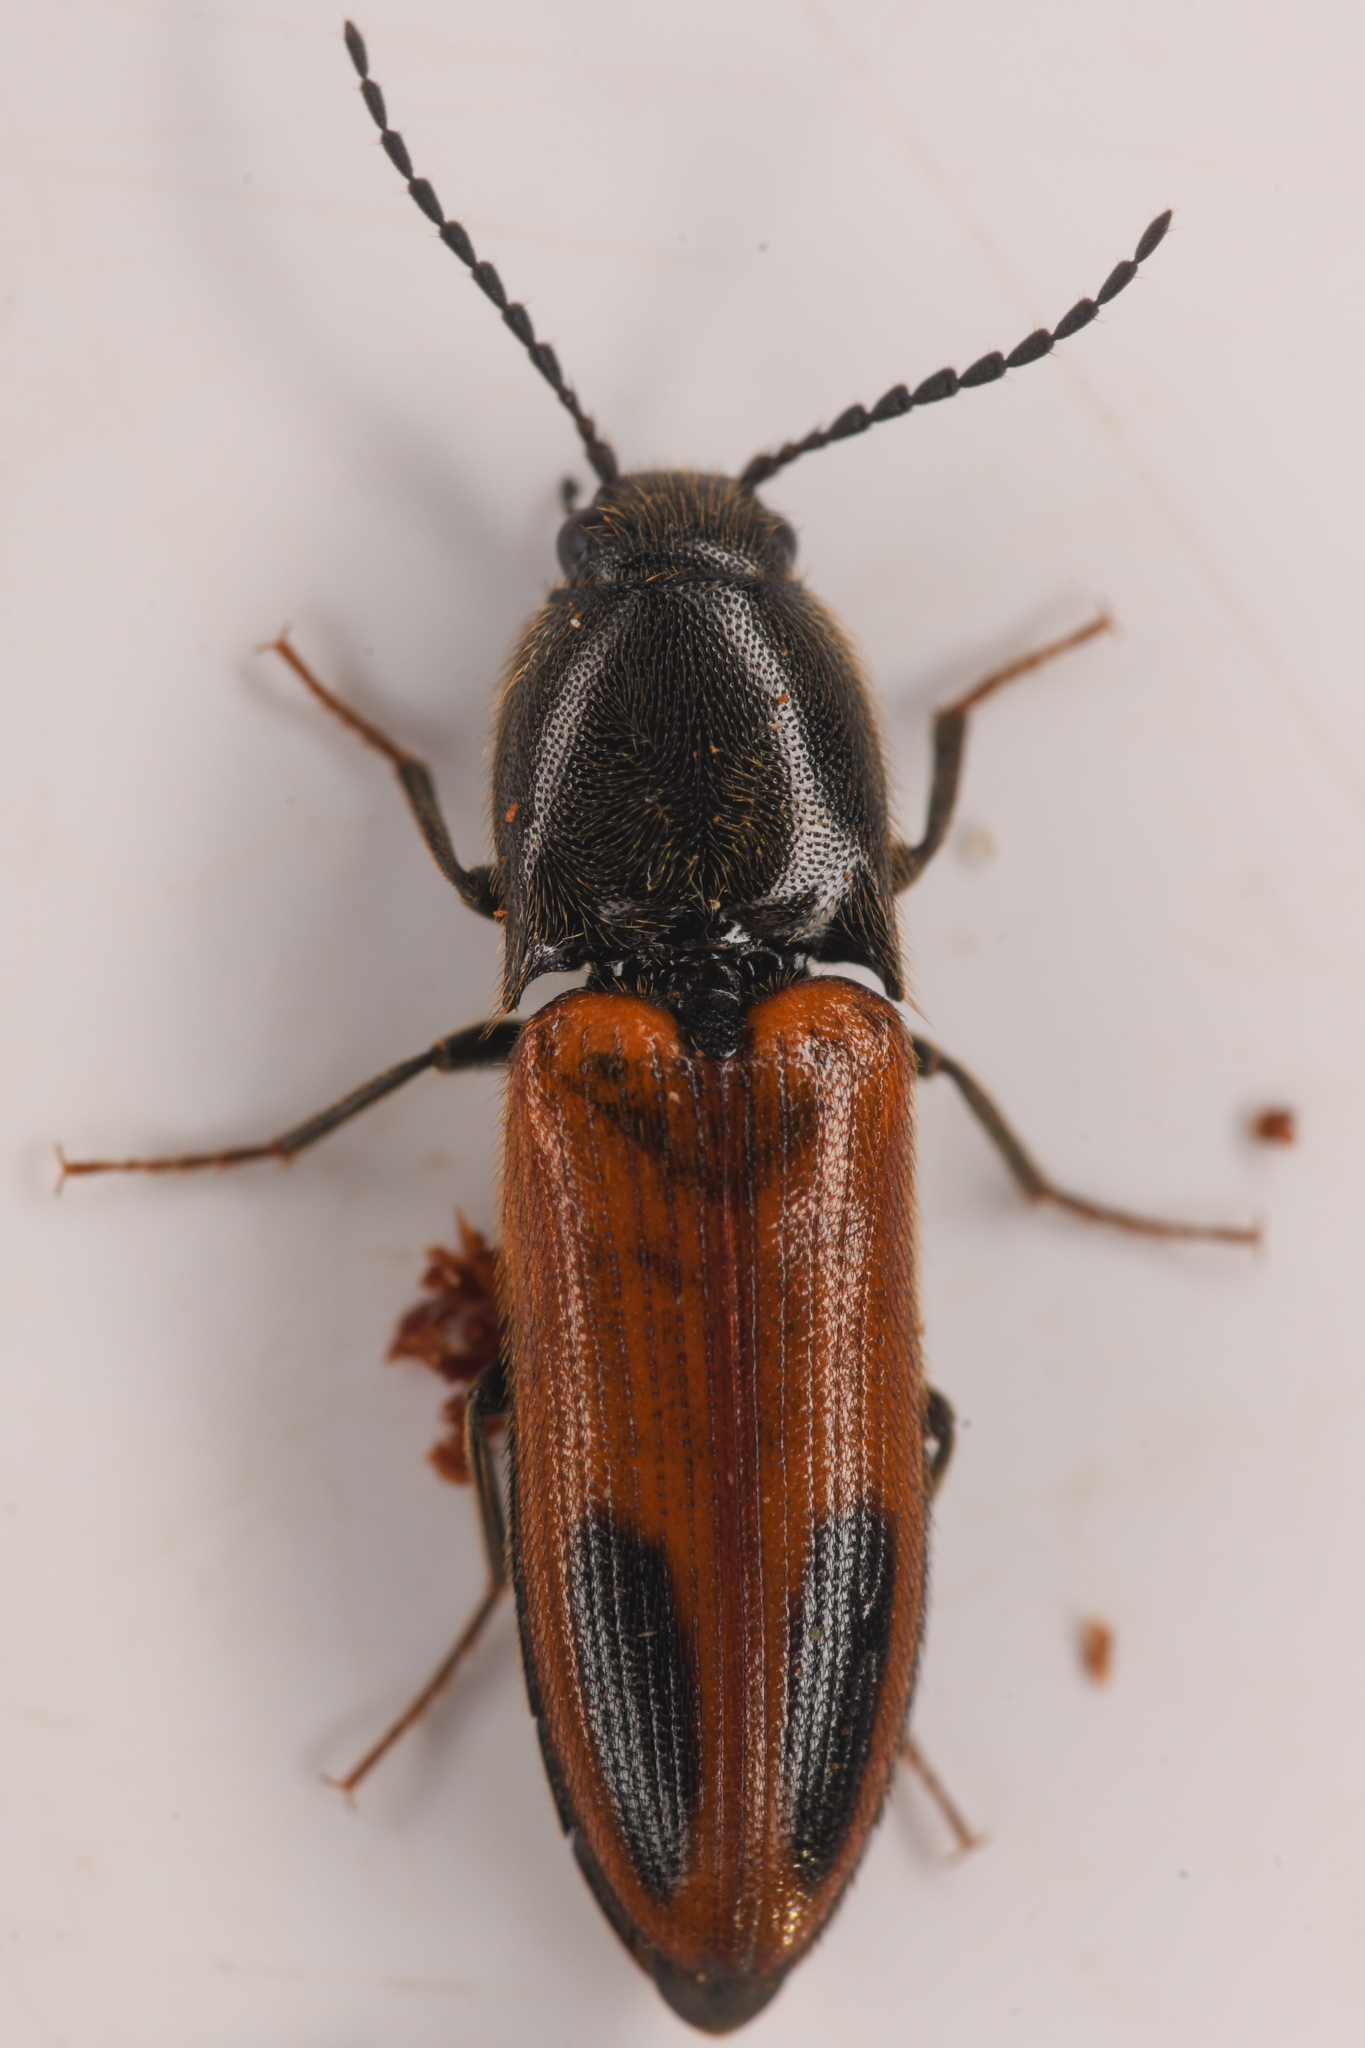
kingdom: Animalia
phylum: Arthropoda
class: Insecta
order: Coleoptera
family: Elateridae
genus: Ampedus
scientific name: Ampedus occidentalis
